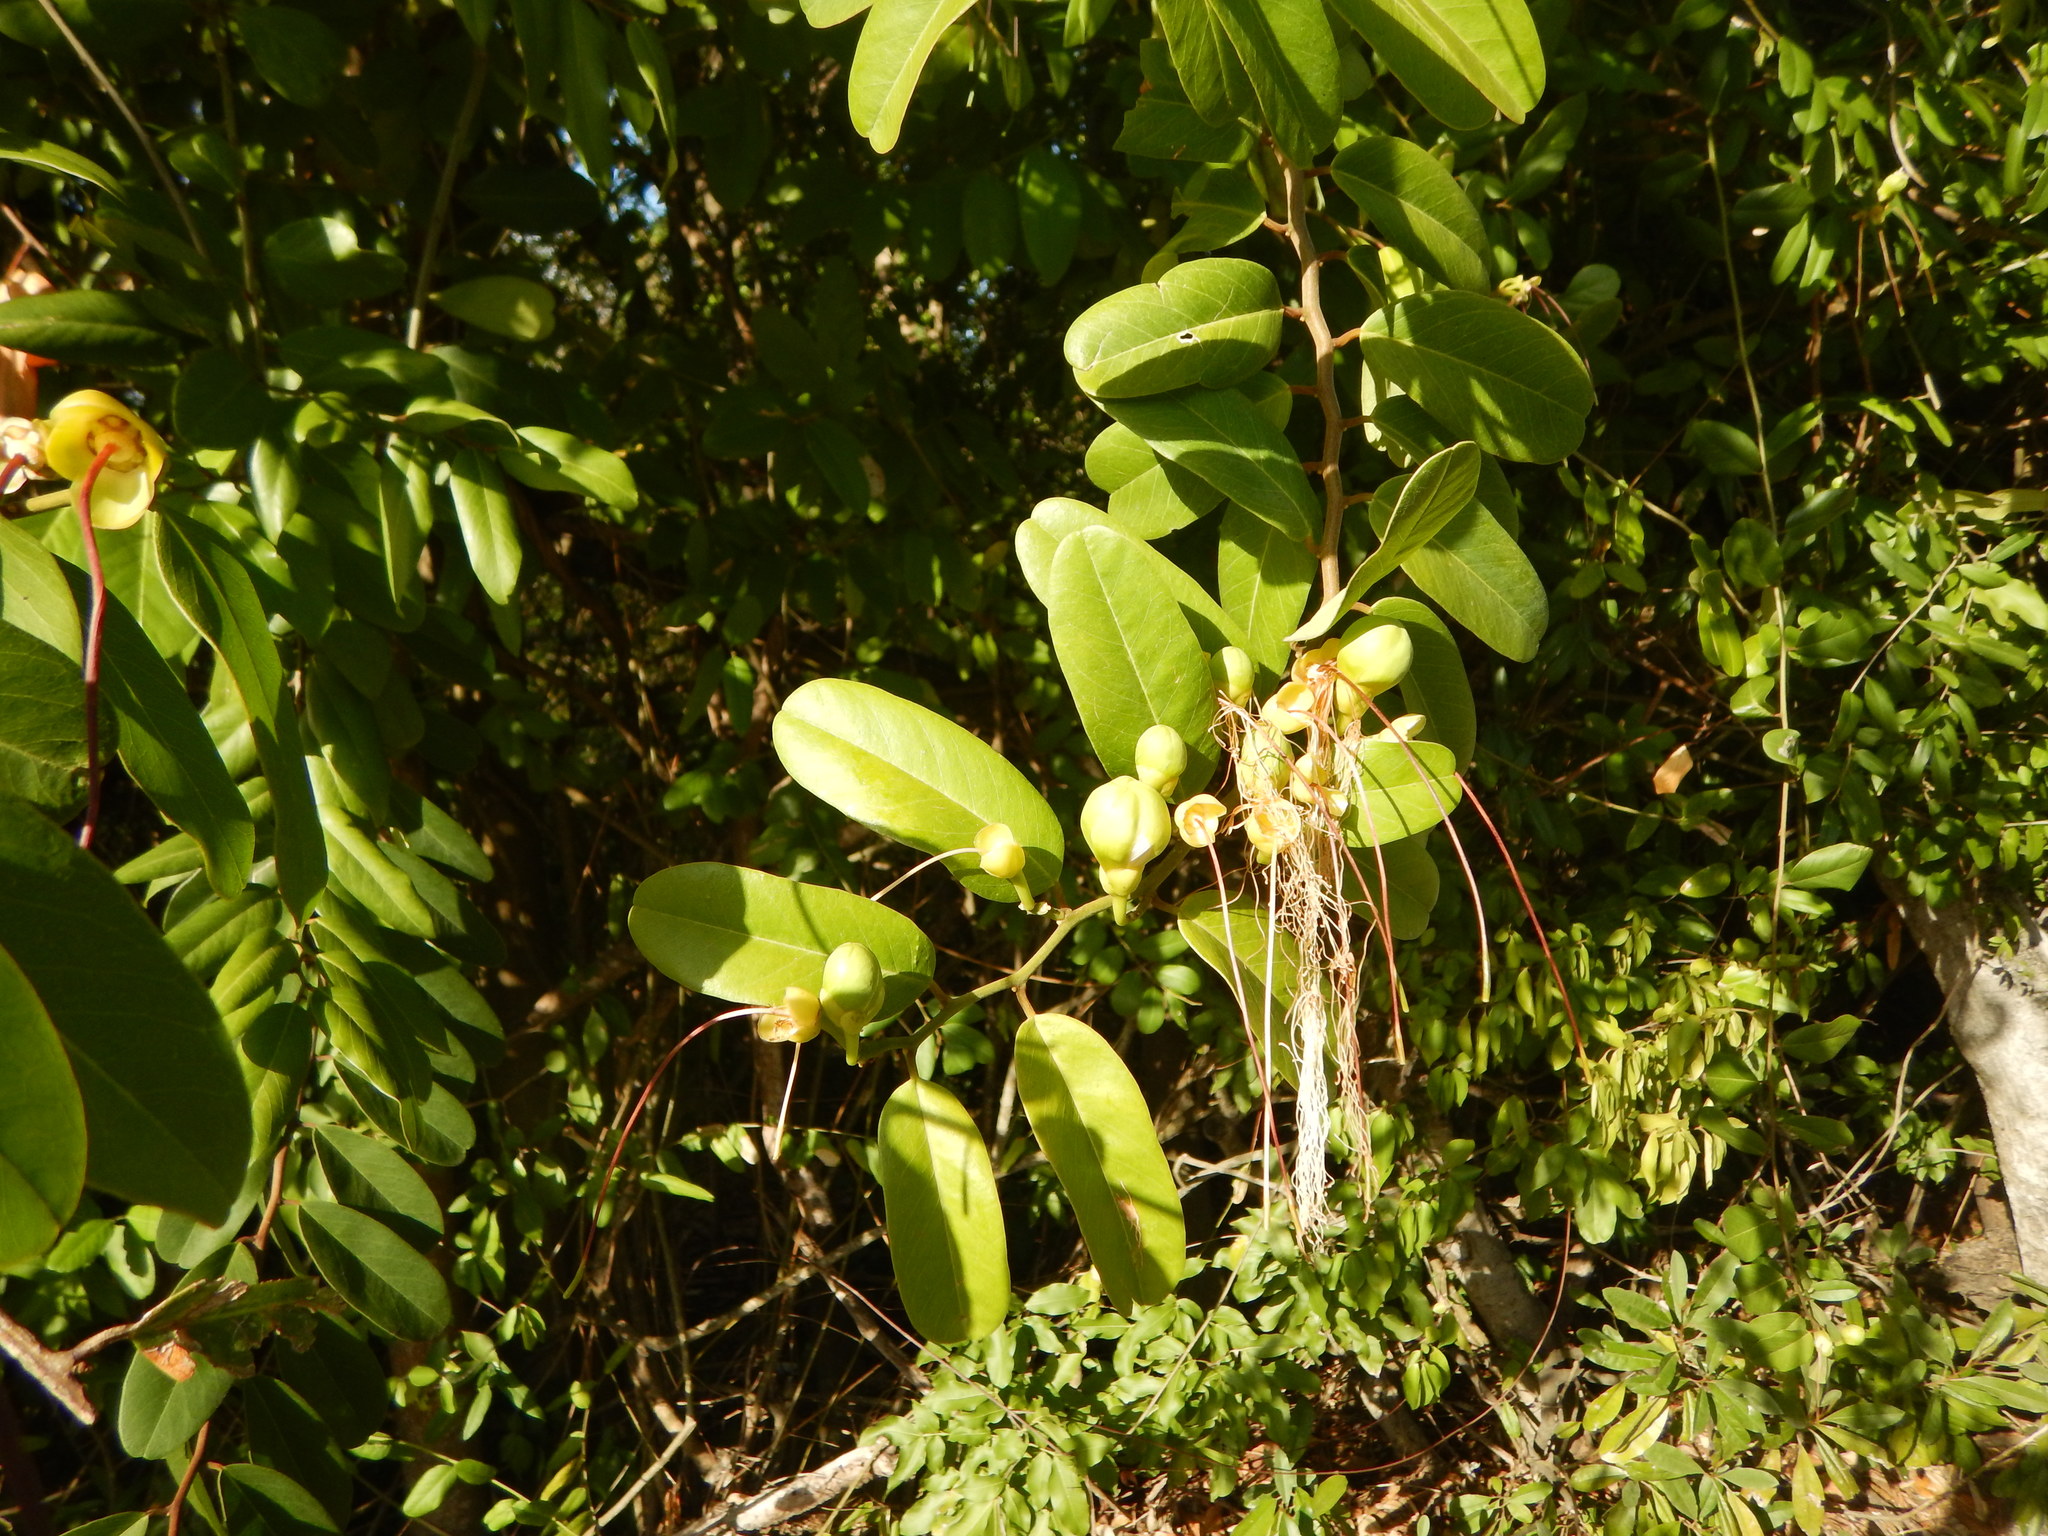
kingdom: Plantae
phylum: Tracheophyta
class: Magnoliopsida
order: Brassicales
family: Capparaceae
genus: Cynophalla
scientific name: Cynophalla flexuosa
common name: Capertree
